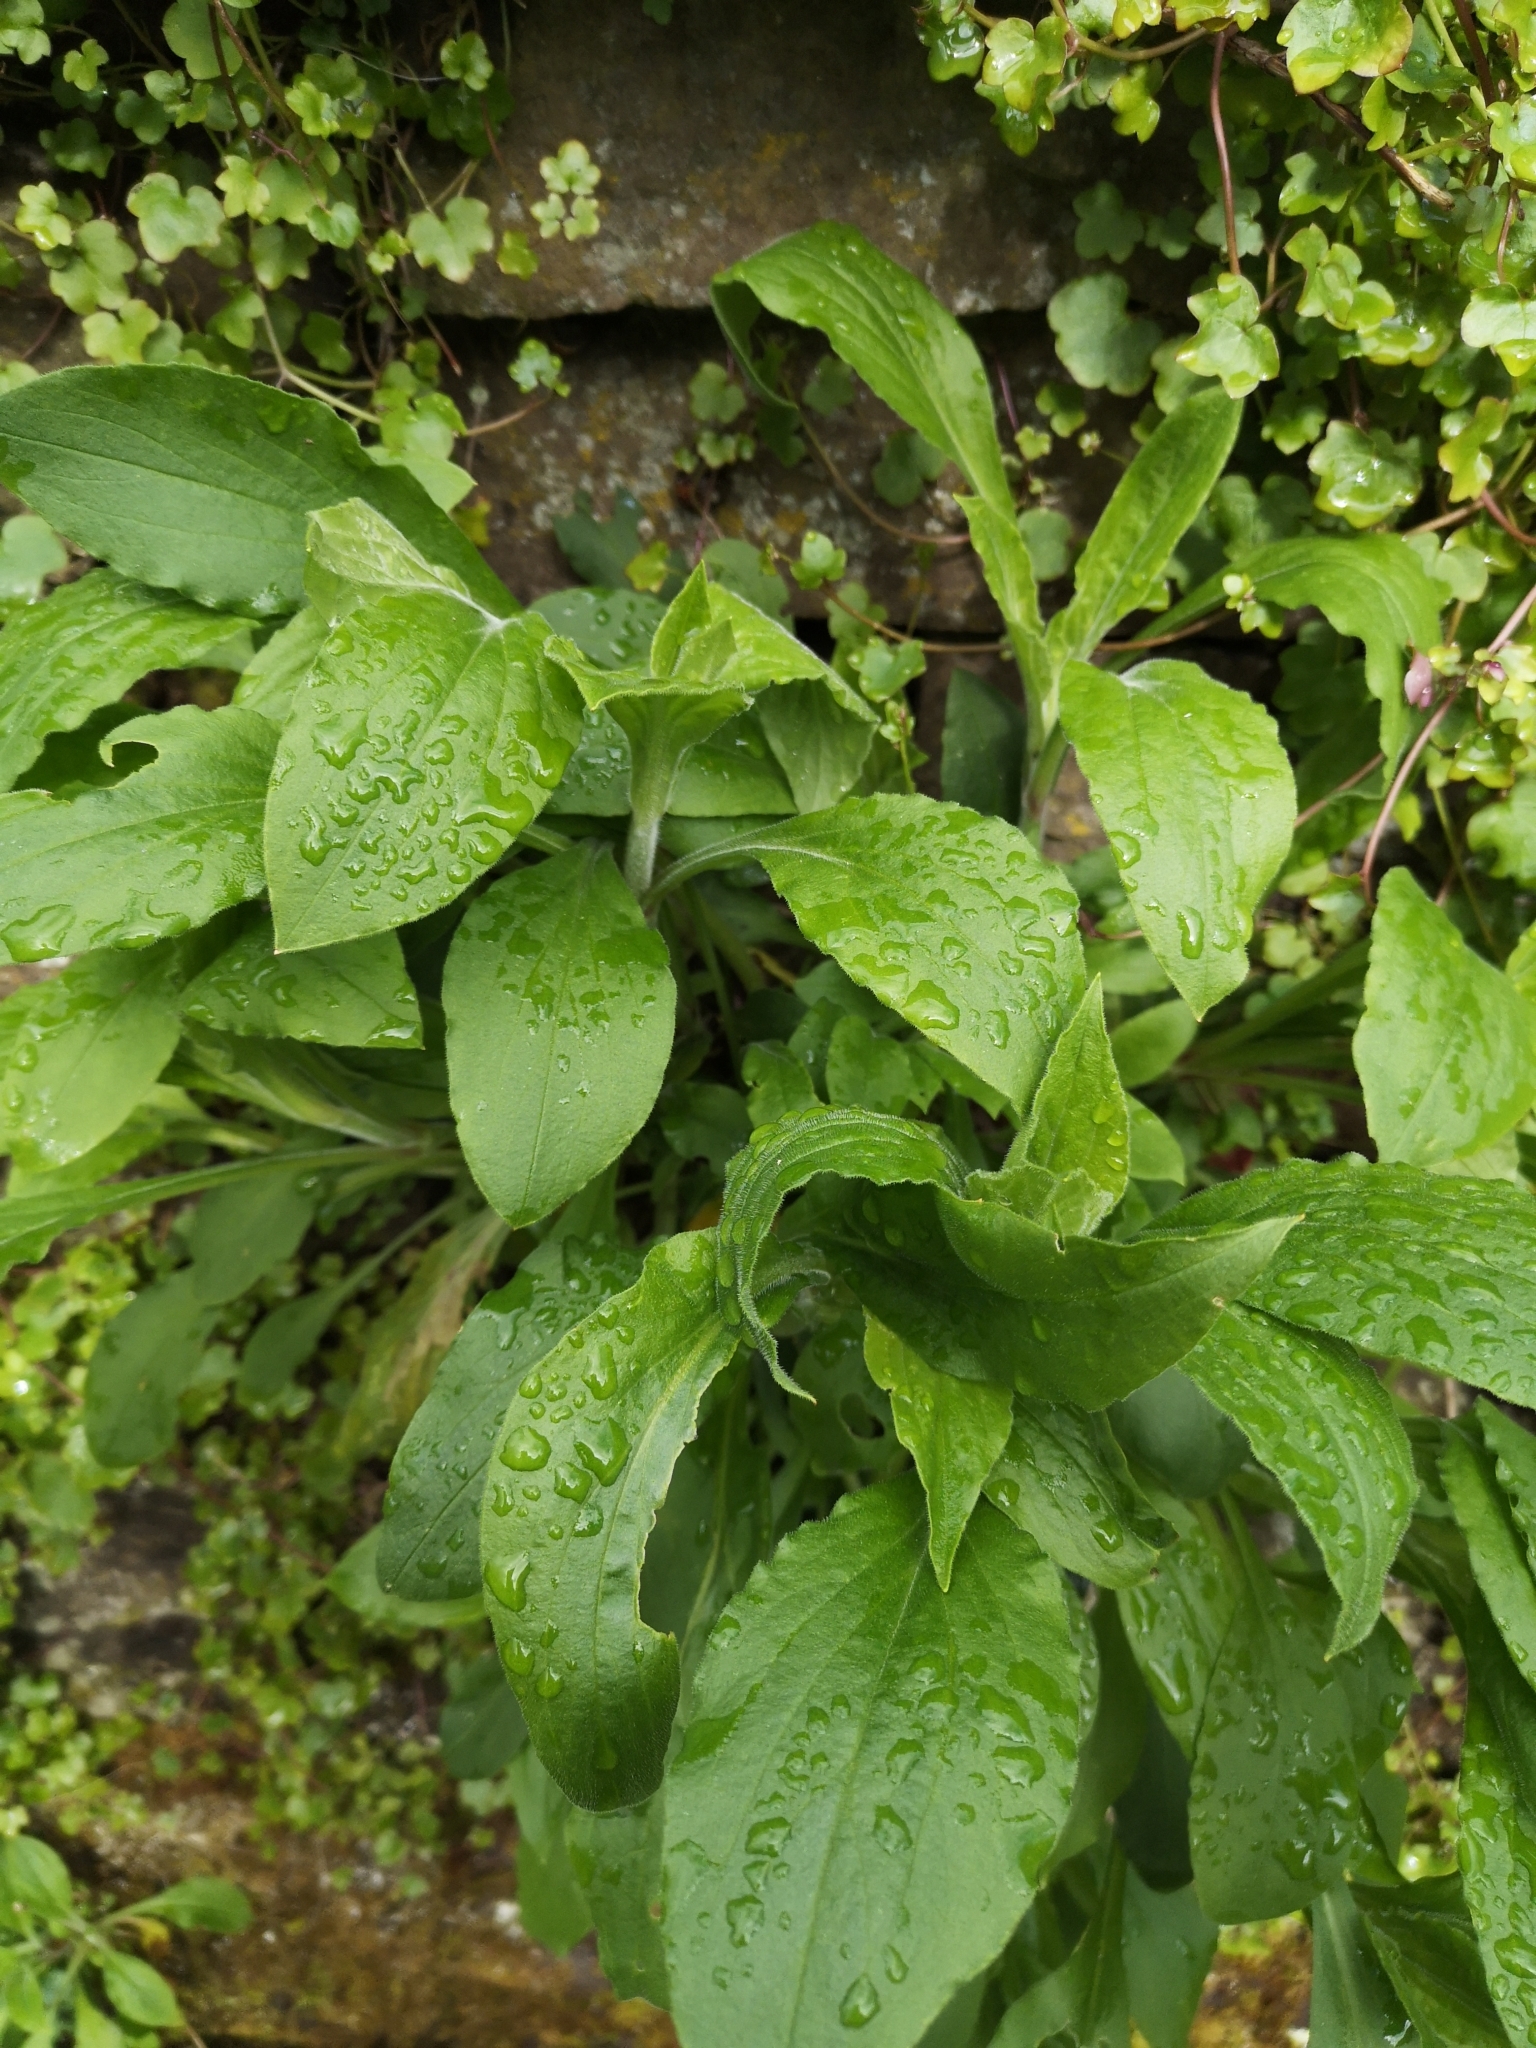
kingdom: Plantae
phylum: Tracheophyta
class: Magnoliopsida
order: Caryophyllales
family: Caryophyllaceae
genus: Silene
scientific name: Silene dioica
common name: Red campion
